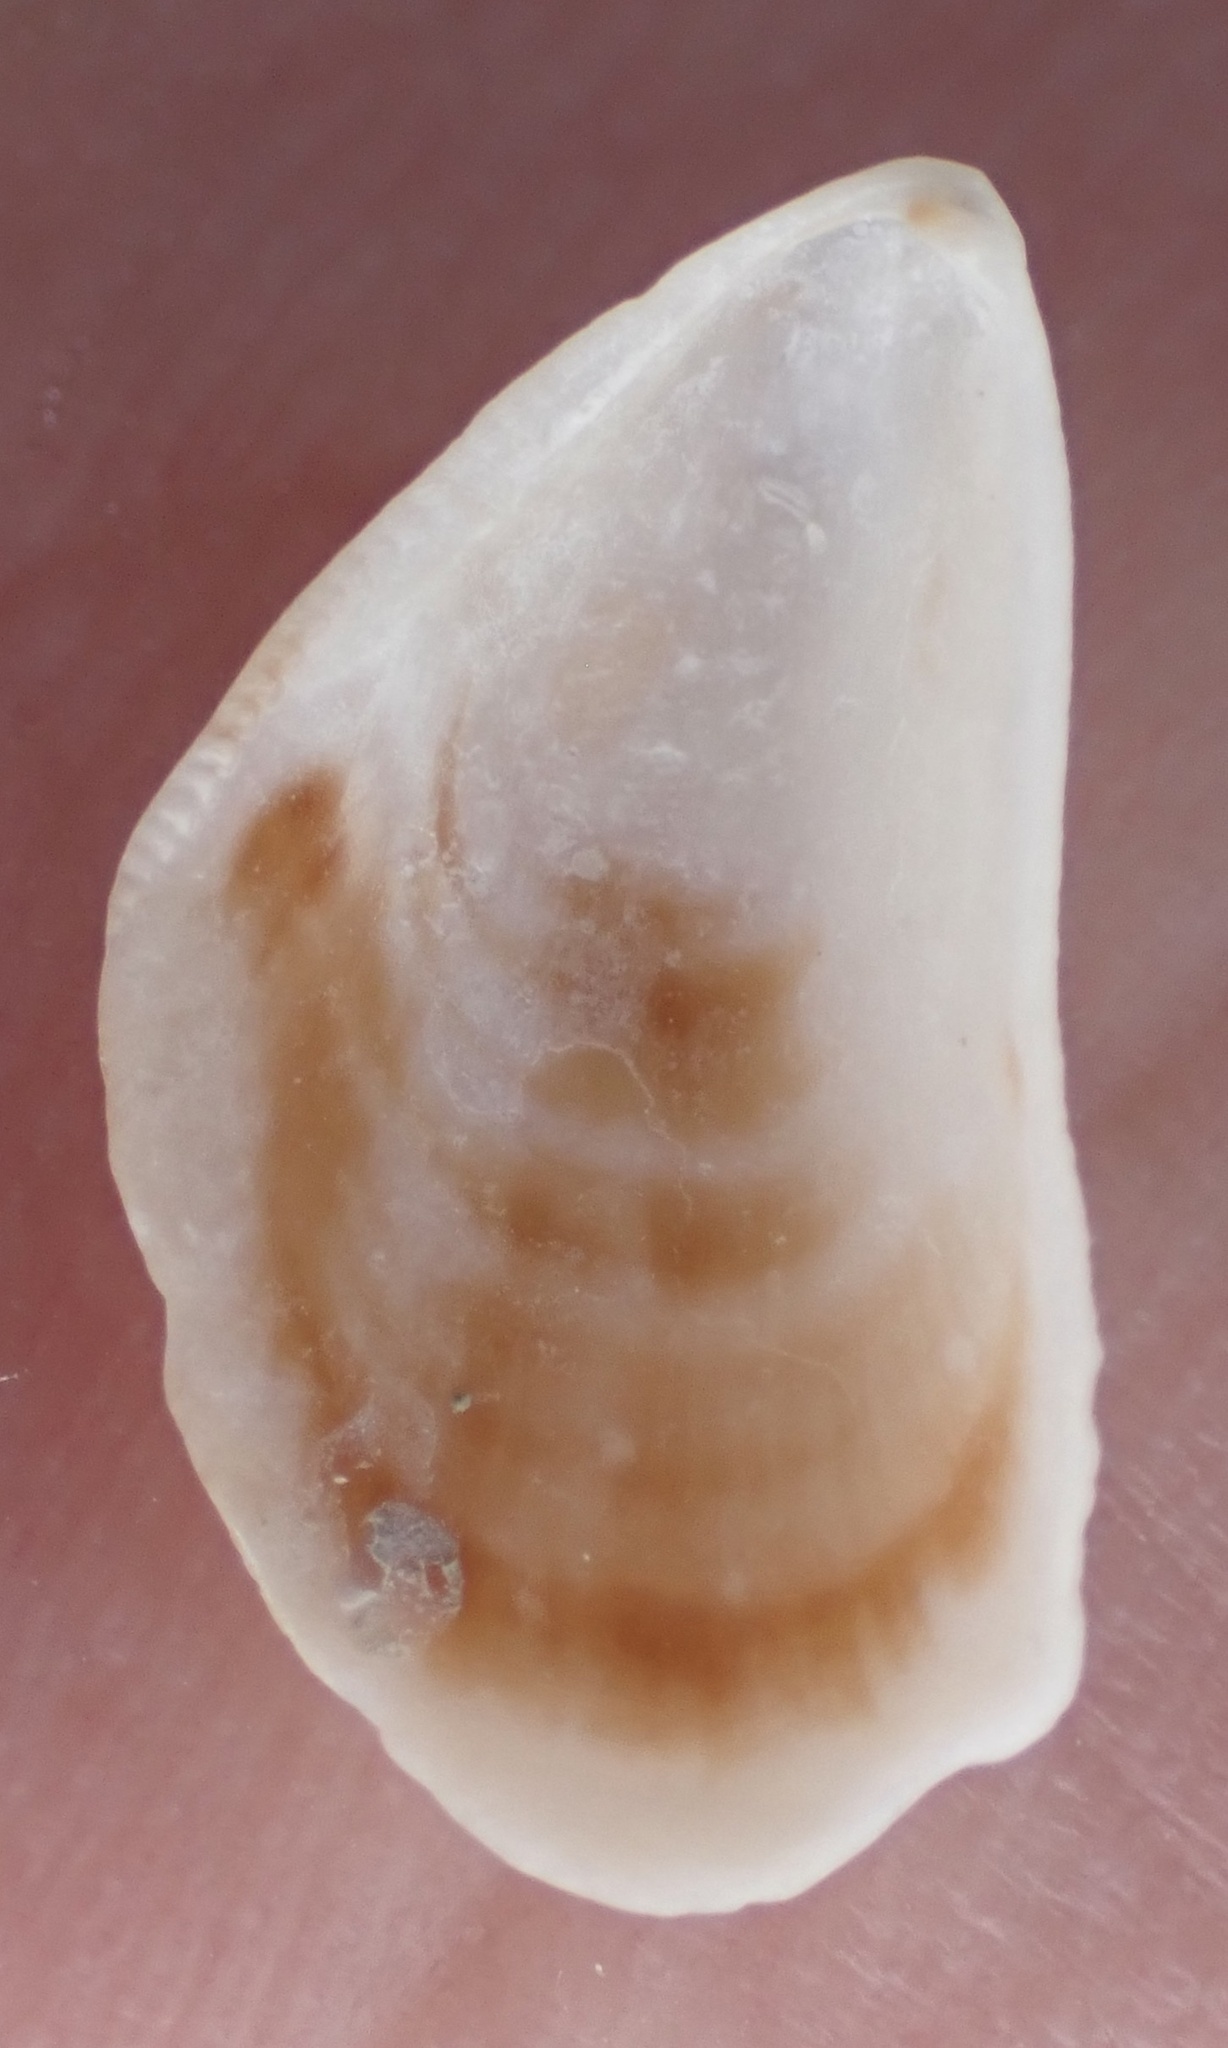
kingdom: Animalia
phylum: Mollusca
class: Bivalvia
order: Mytilida
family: Mytilidae
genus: Brachidontes
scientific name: Brachidontes exustus
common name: Scorched mussel
